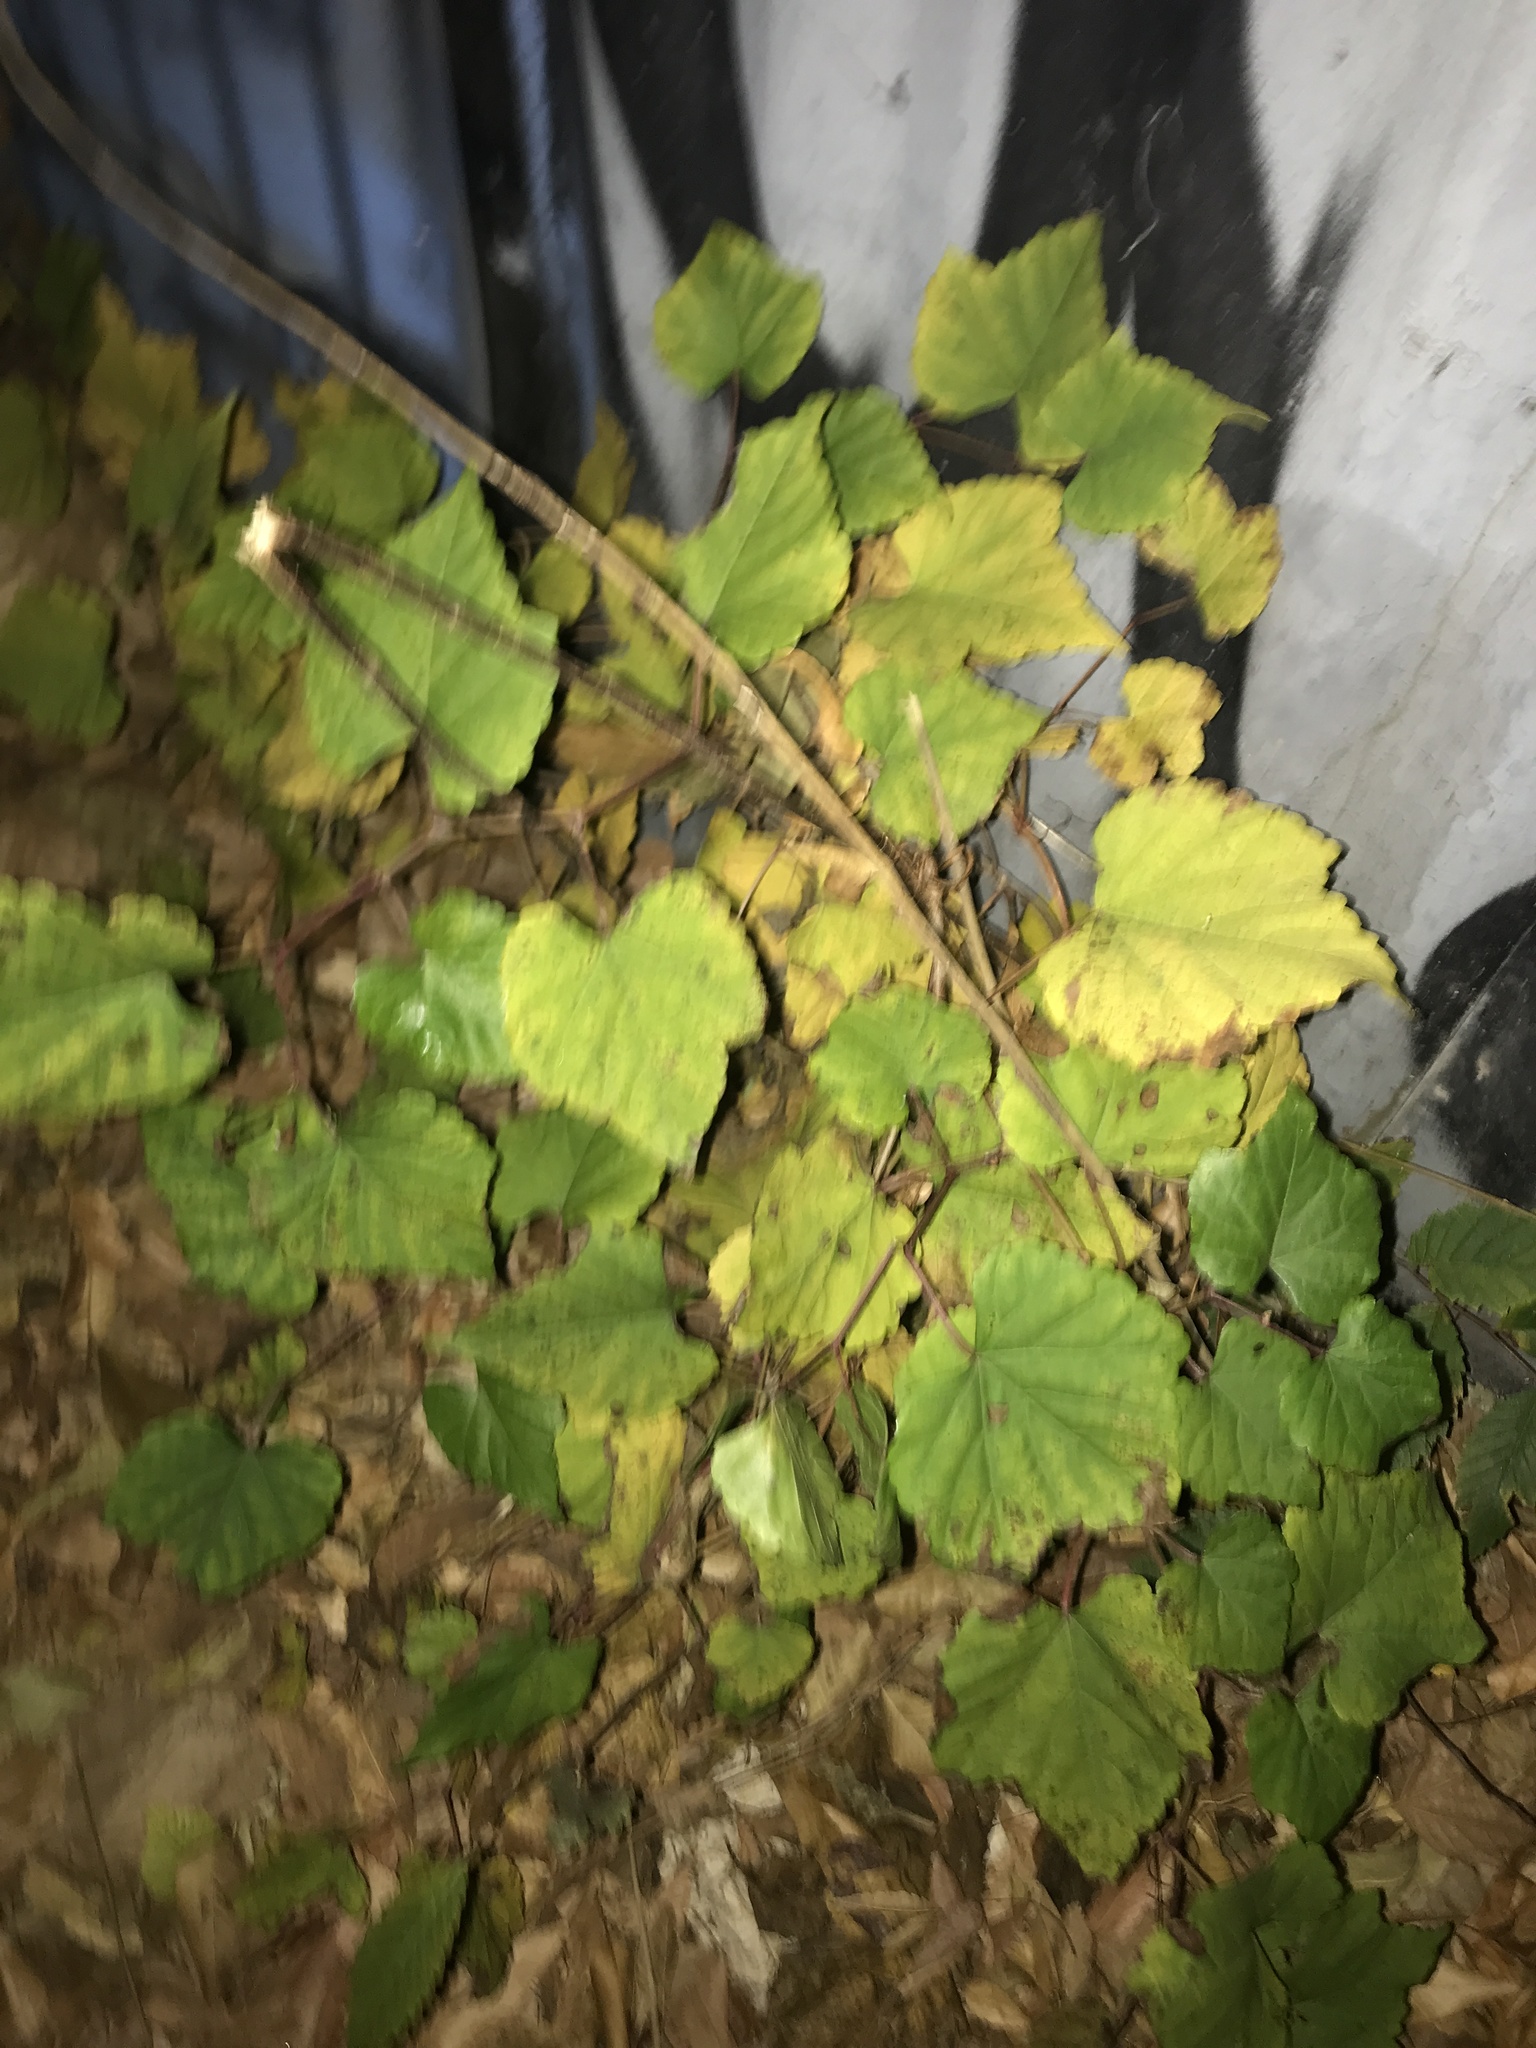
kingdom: Plantae
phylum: Tracheophyta
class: Magnoliopsida
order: Vitales
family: Vitaceae
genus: Ampelopsis
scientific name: Ampelopsis glandulosa
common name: Amur peppervine
